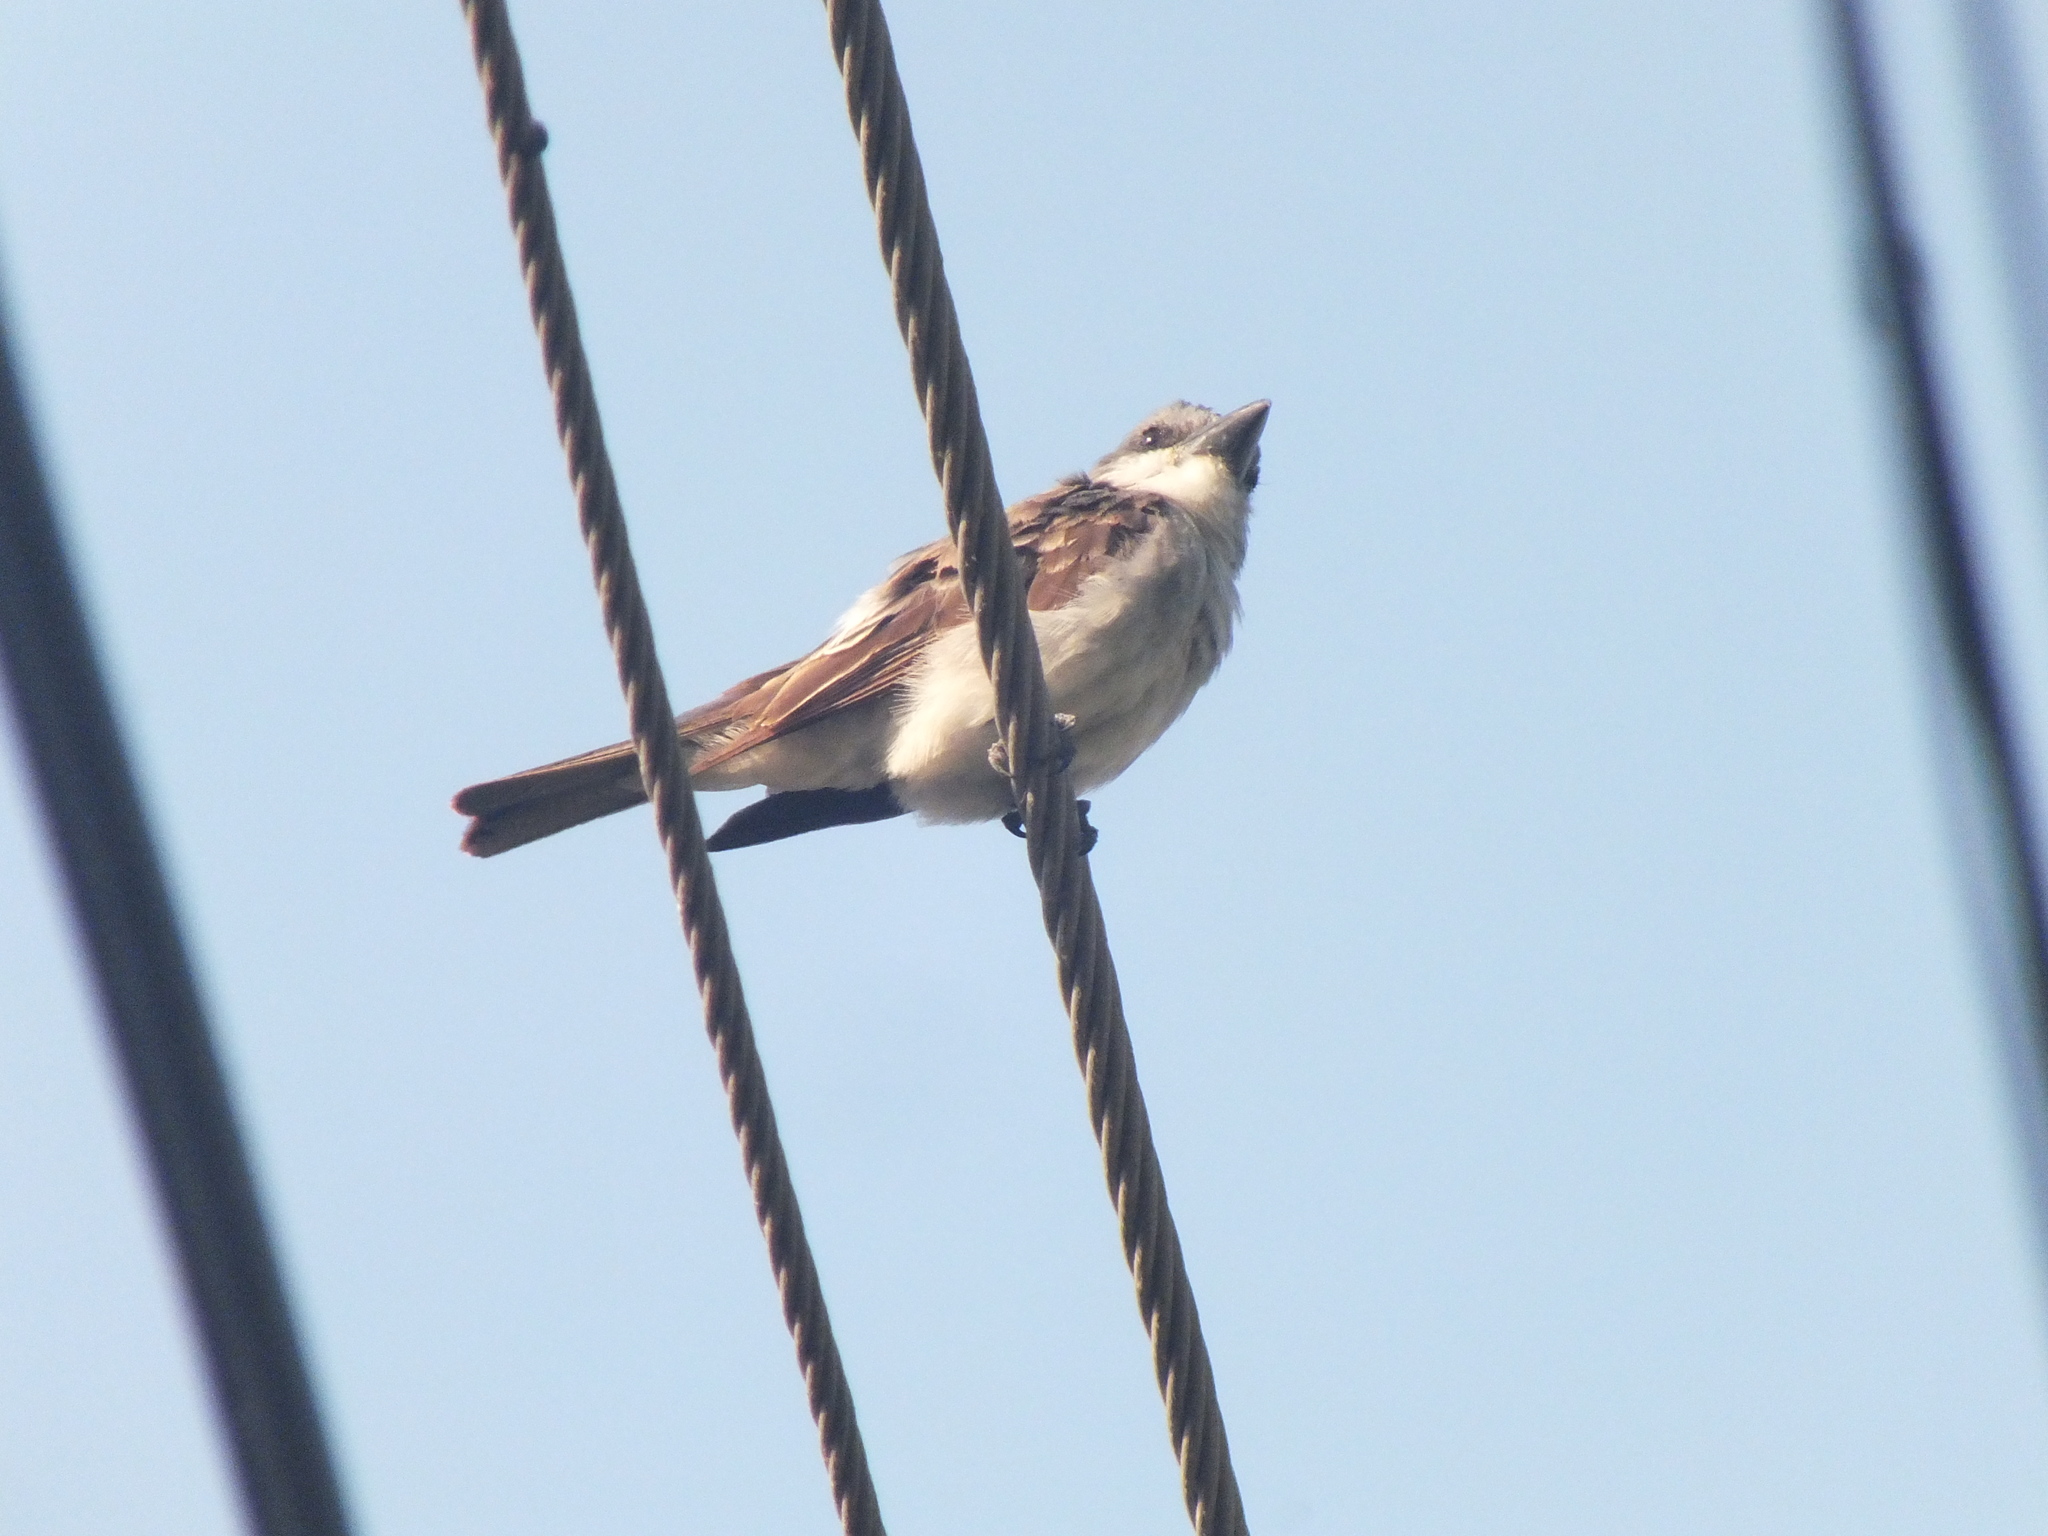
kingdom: Animalia
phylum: Chordata
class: Aves
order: Passeriformes
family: Tyrannidae
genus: Tyrannus
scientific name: Tyrannus dominicensis
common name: Gray kingbird
